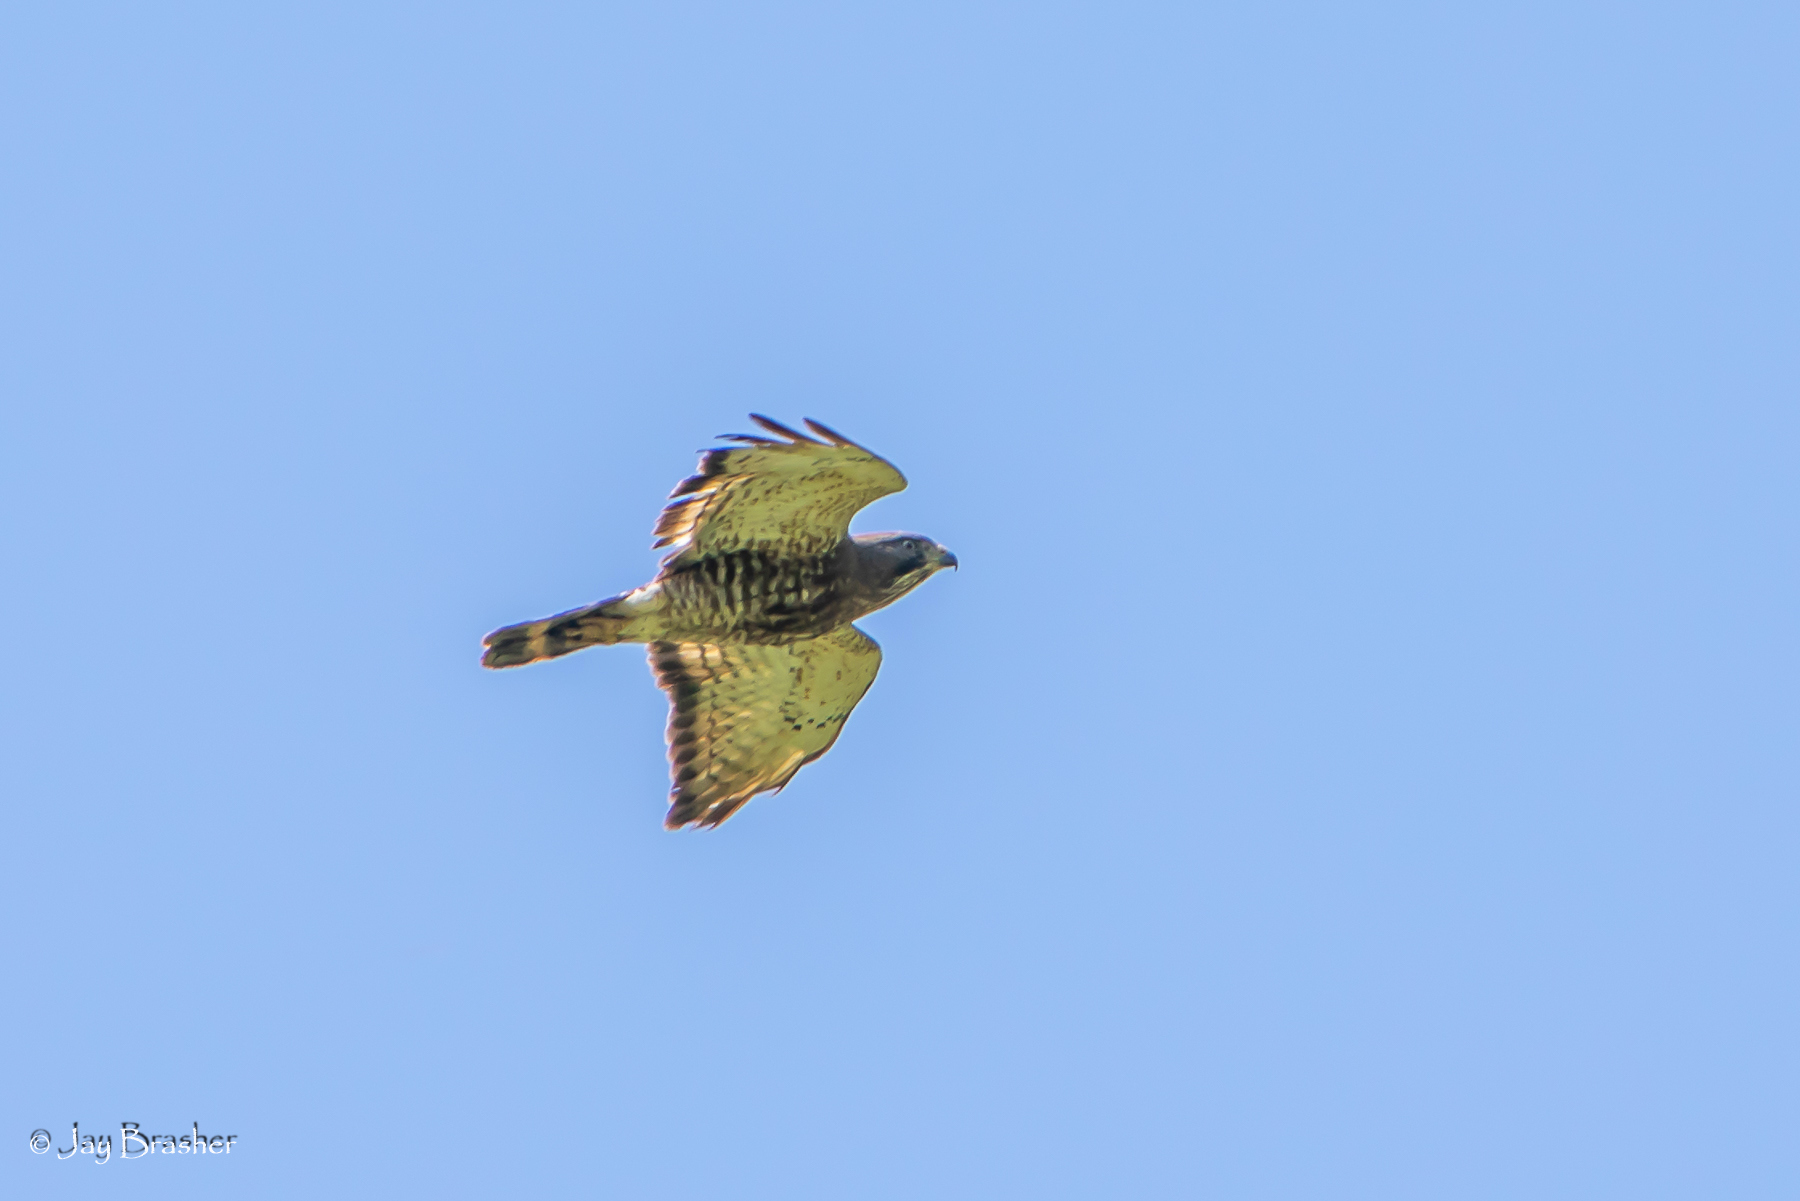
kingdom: Animalia
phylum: Chordata
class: Aves
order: Accipitriformes
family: Accipitridae
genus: Buteo
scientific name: Buteo platypterus
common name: Broad-winged hawk
